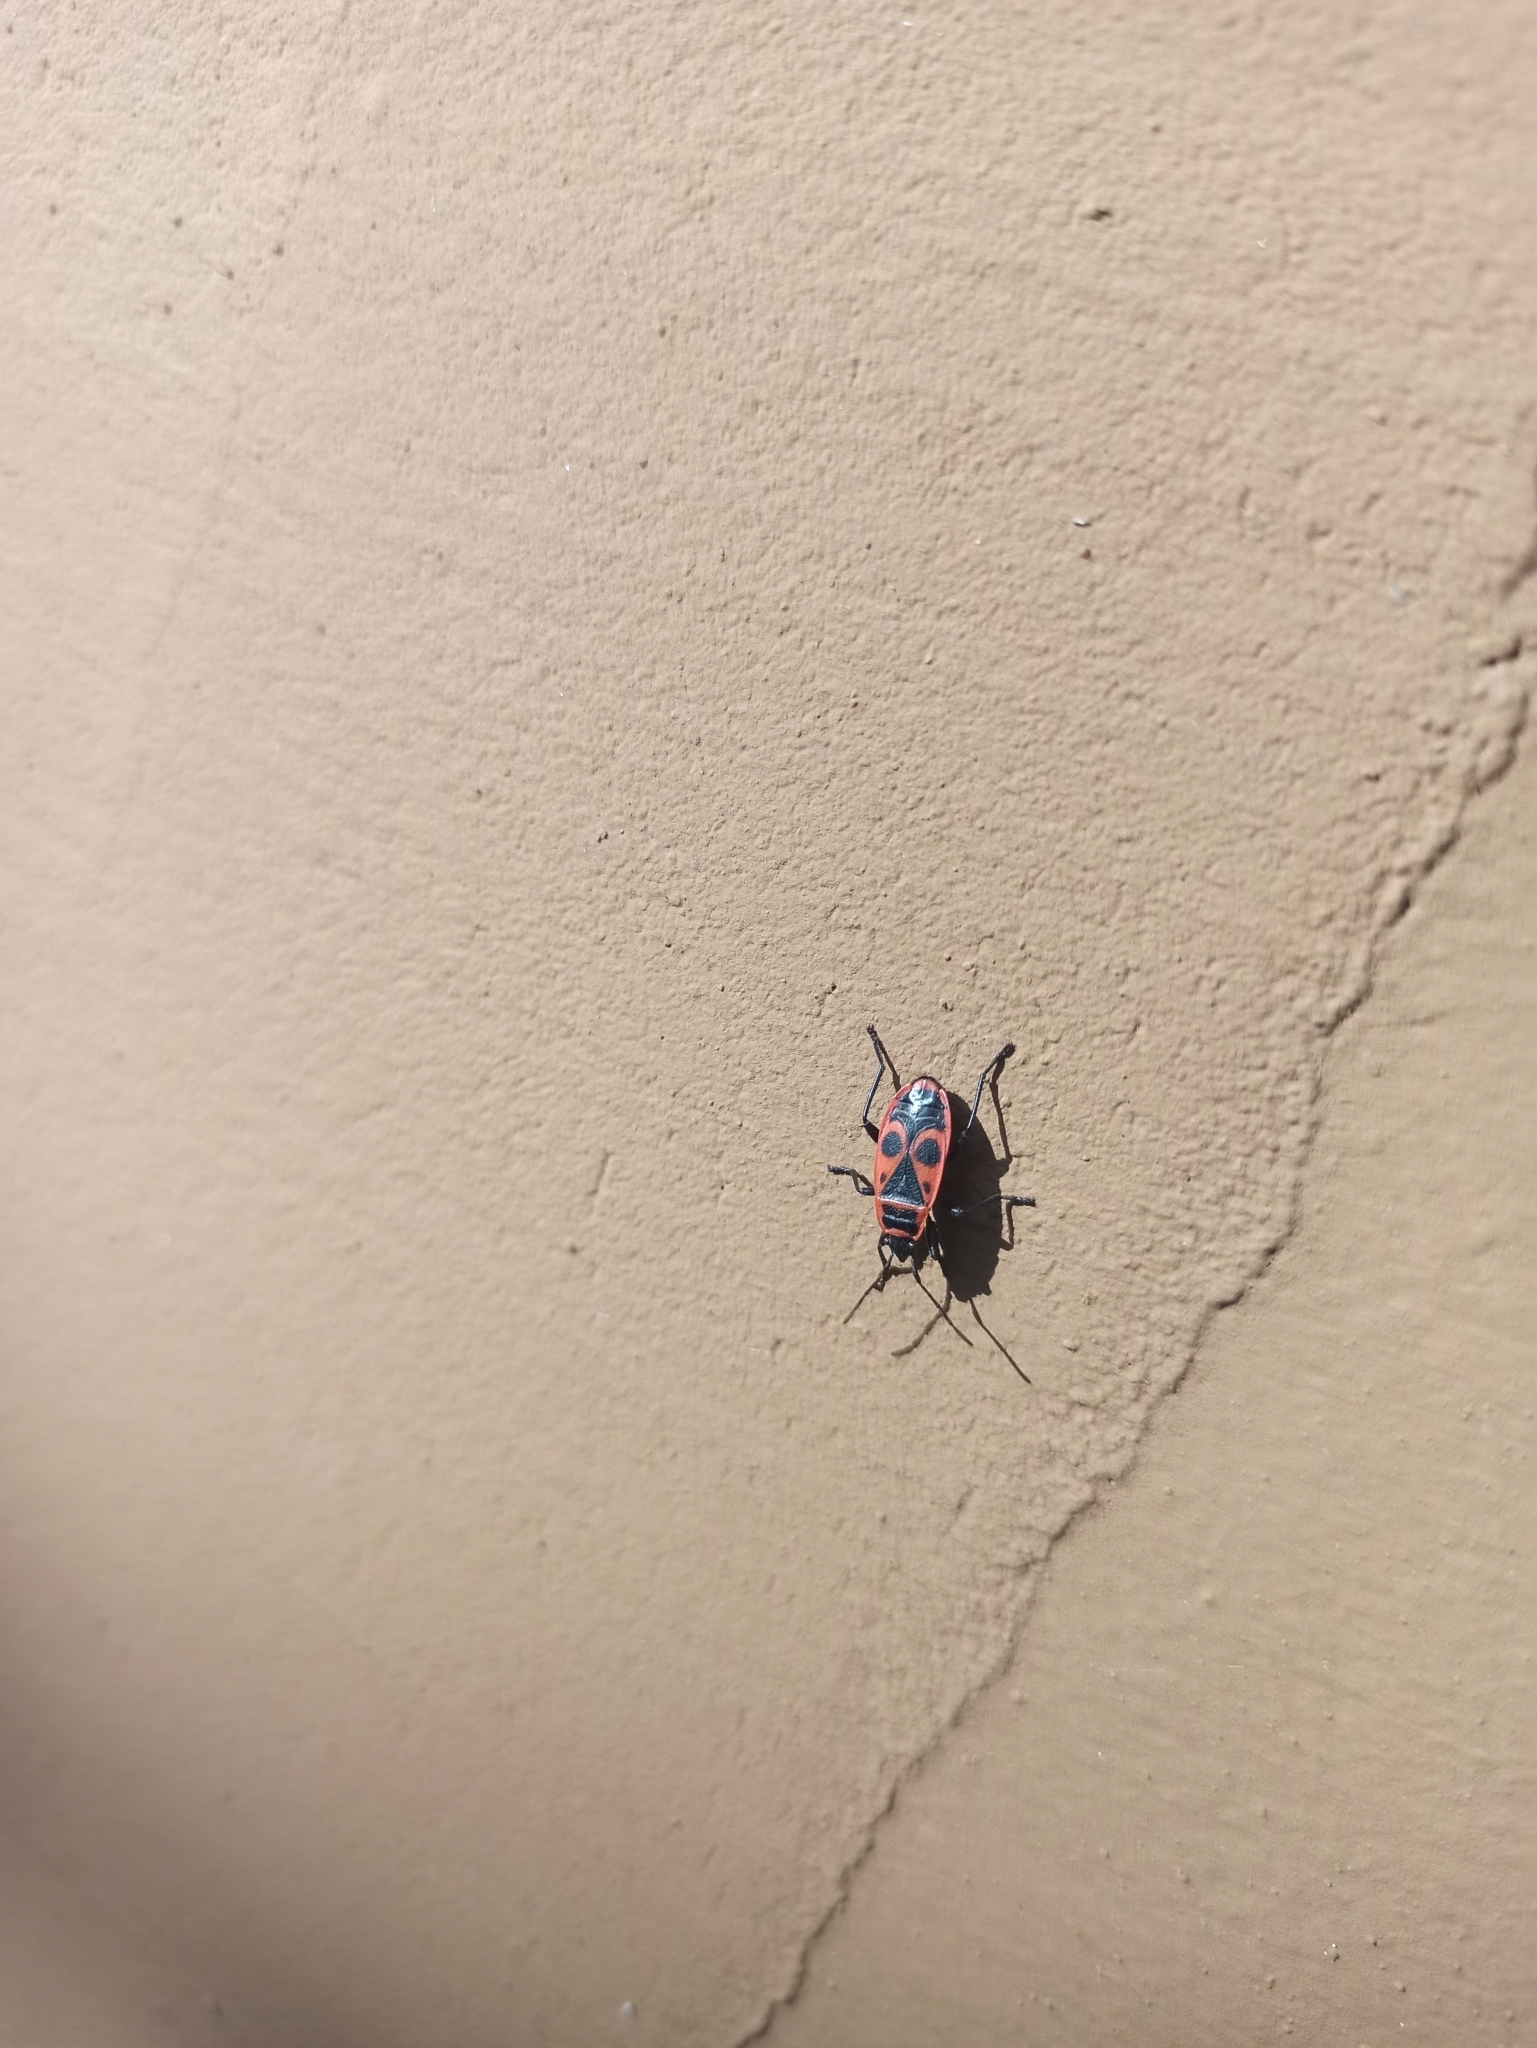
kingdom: Animalia
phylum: Arthropoda
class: Insecta
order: Hemiptera
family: Pyrrhocoridae
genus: Pyrrhocoris
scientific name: Pyrrhocoris apterus
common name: Firebug
